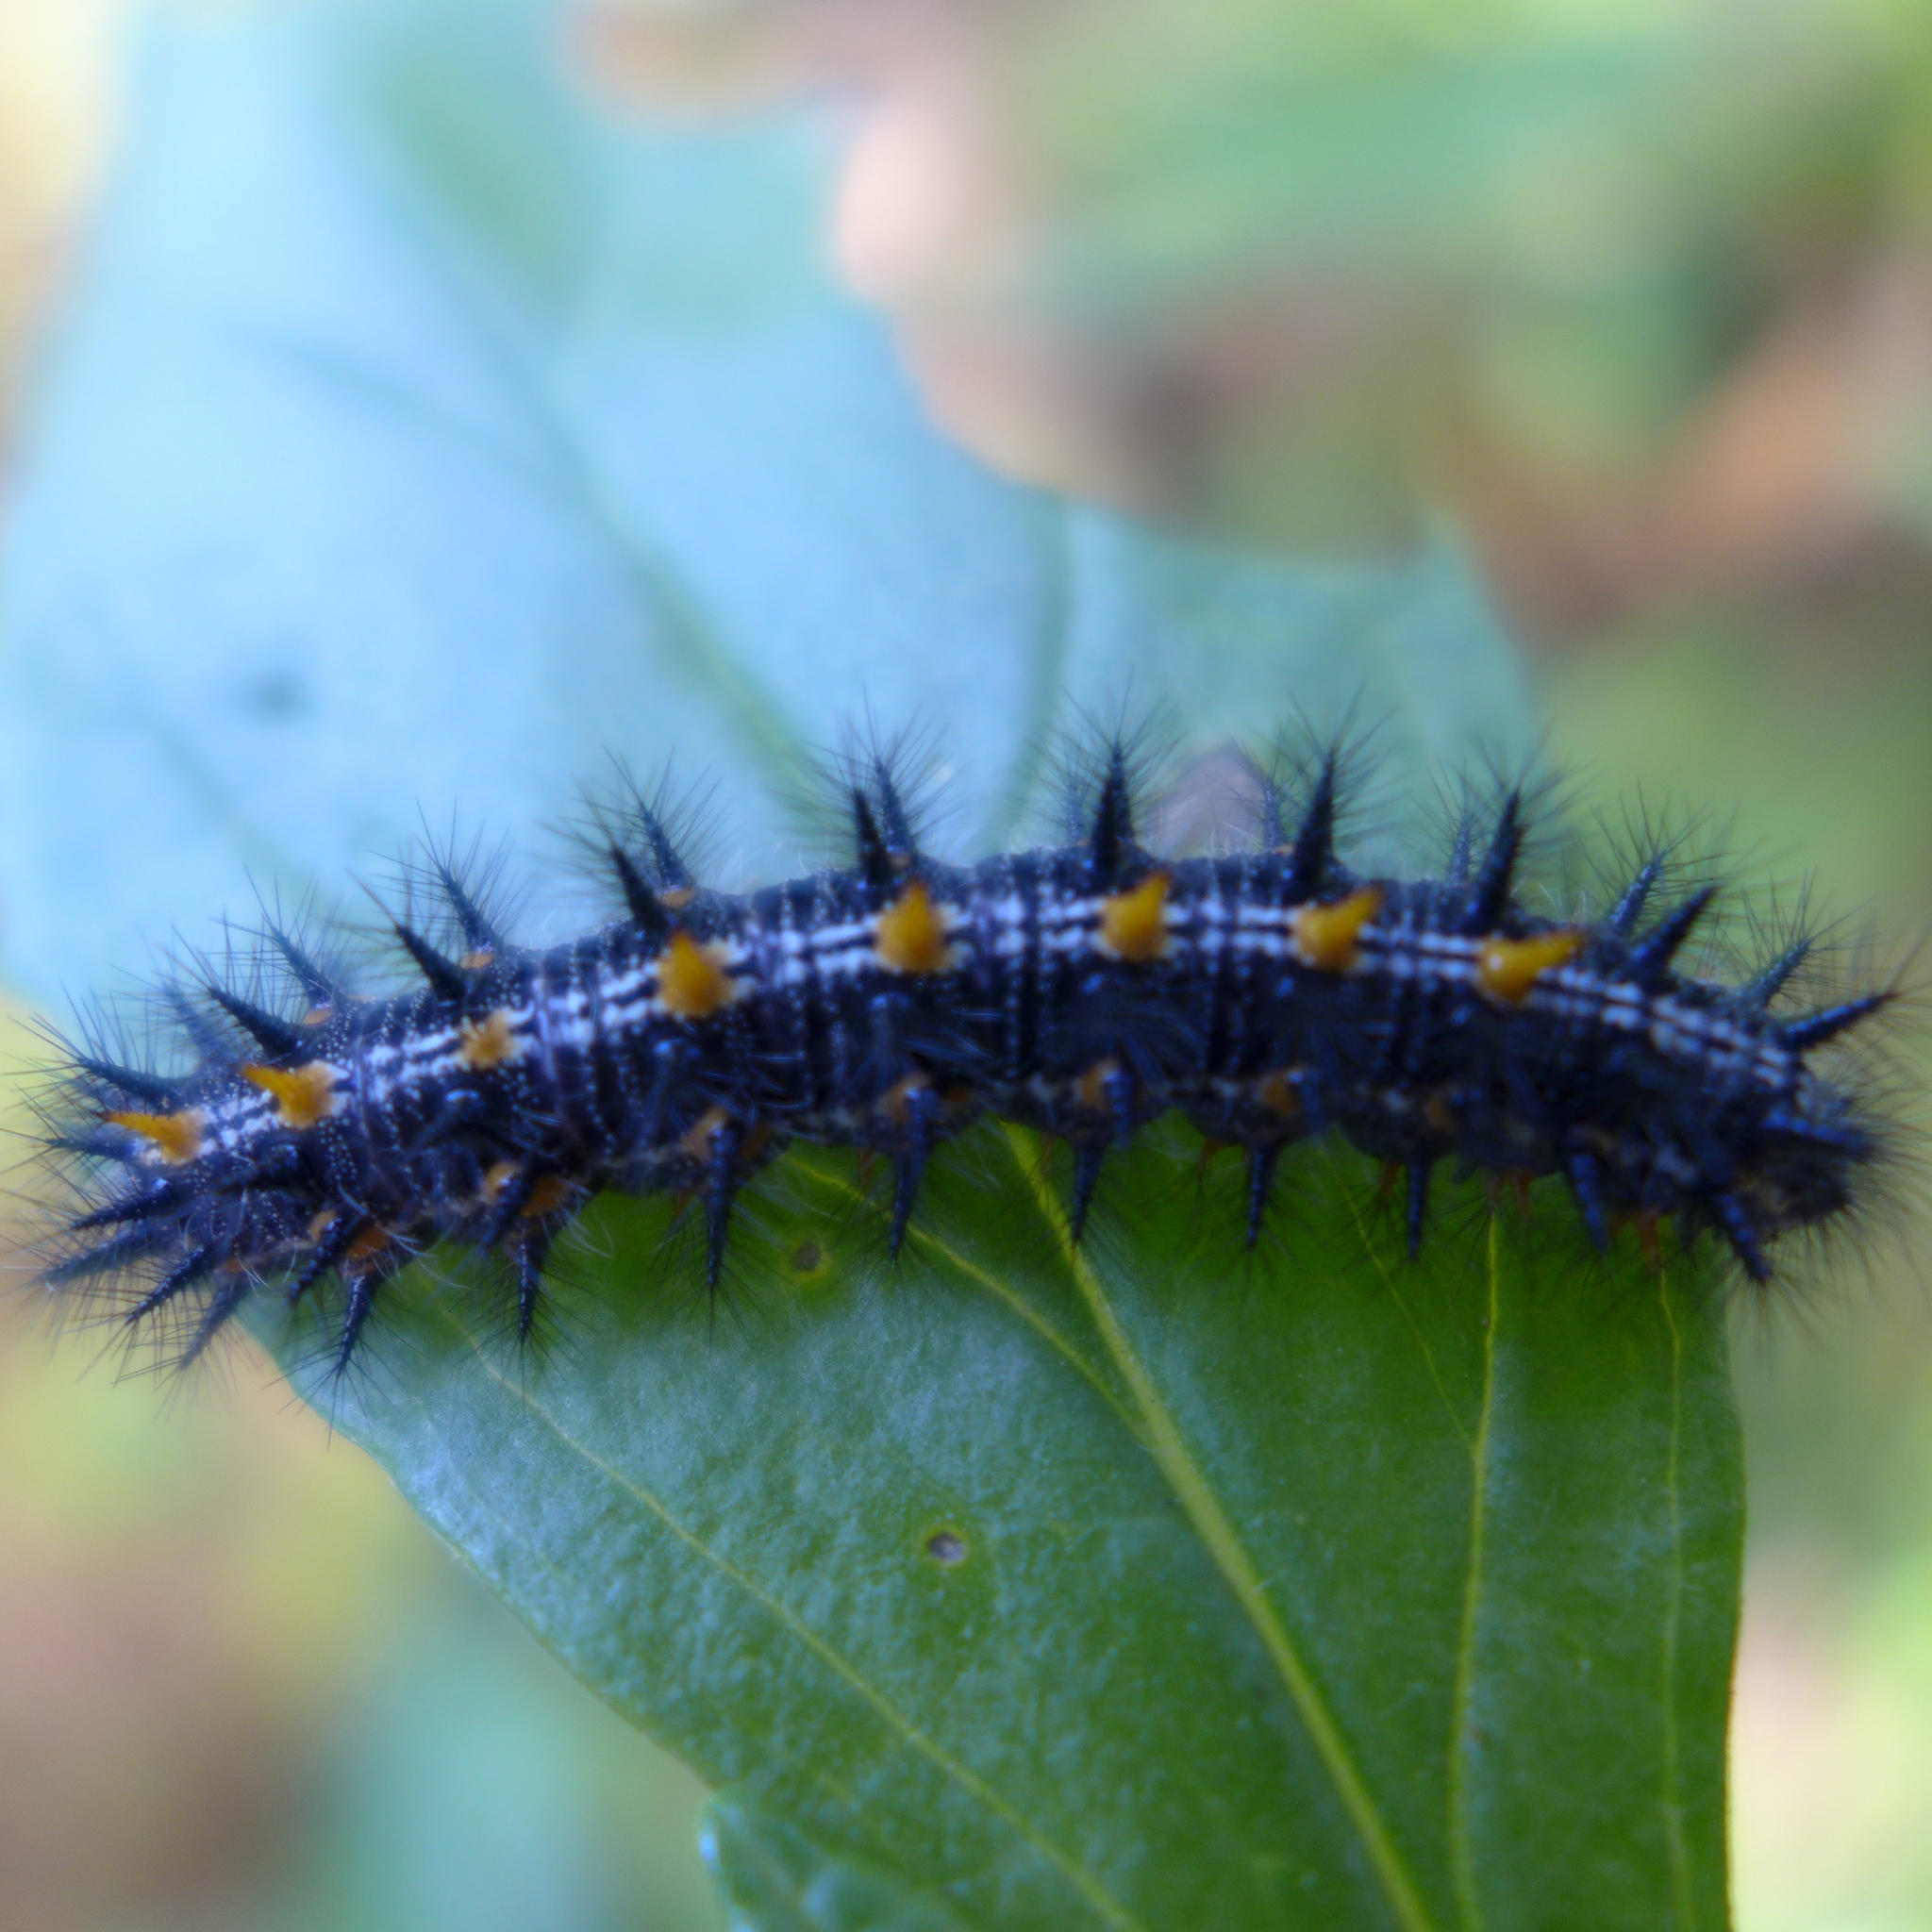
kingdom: Animalia
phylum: Arthropoda
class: Insecta
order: Lepidoptera
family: Nymphalidae
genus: Occidryas
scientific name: Occidryas chalcedona
